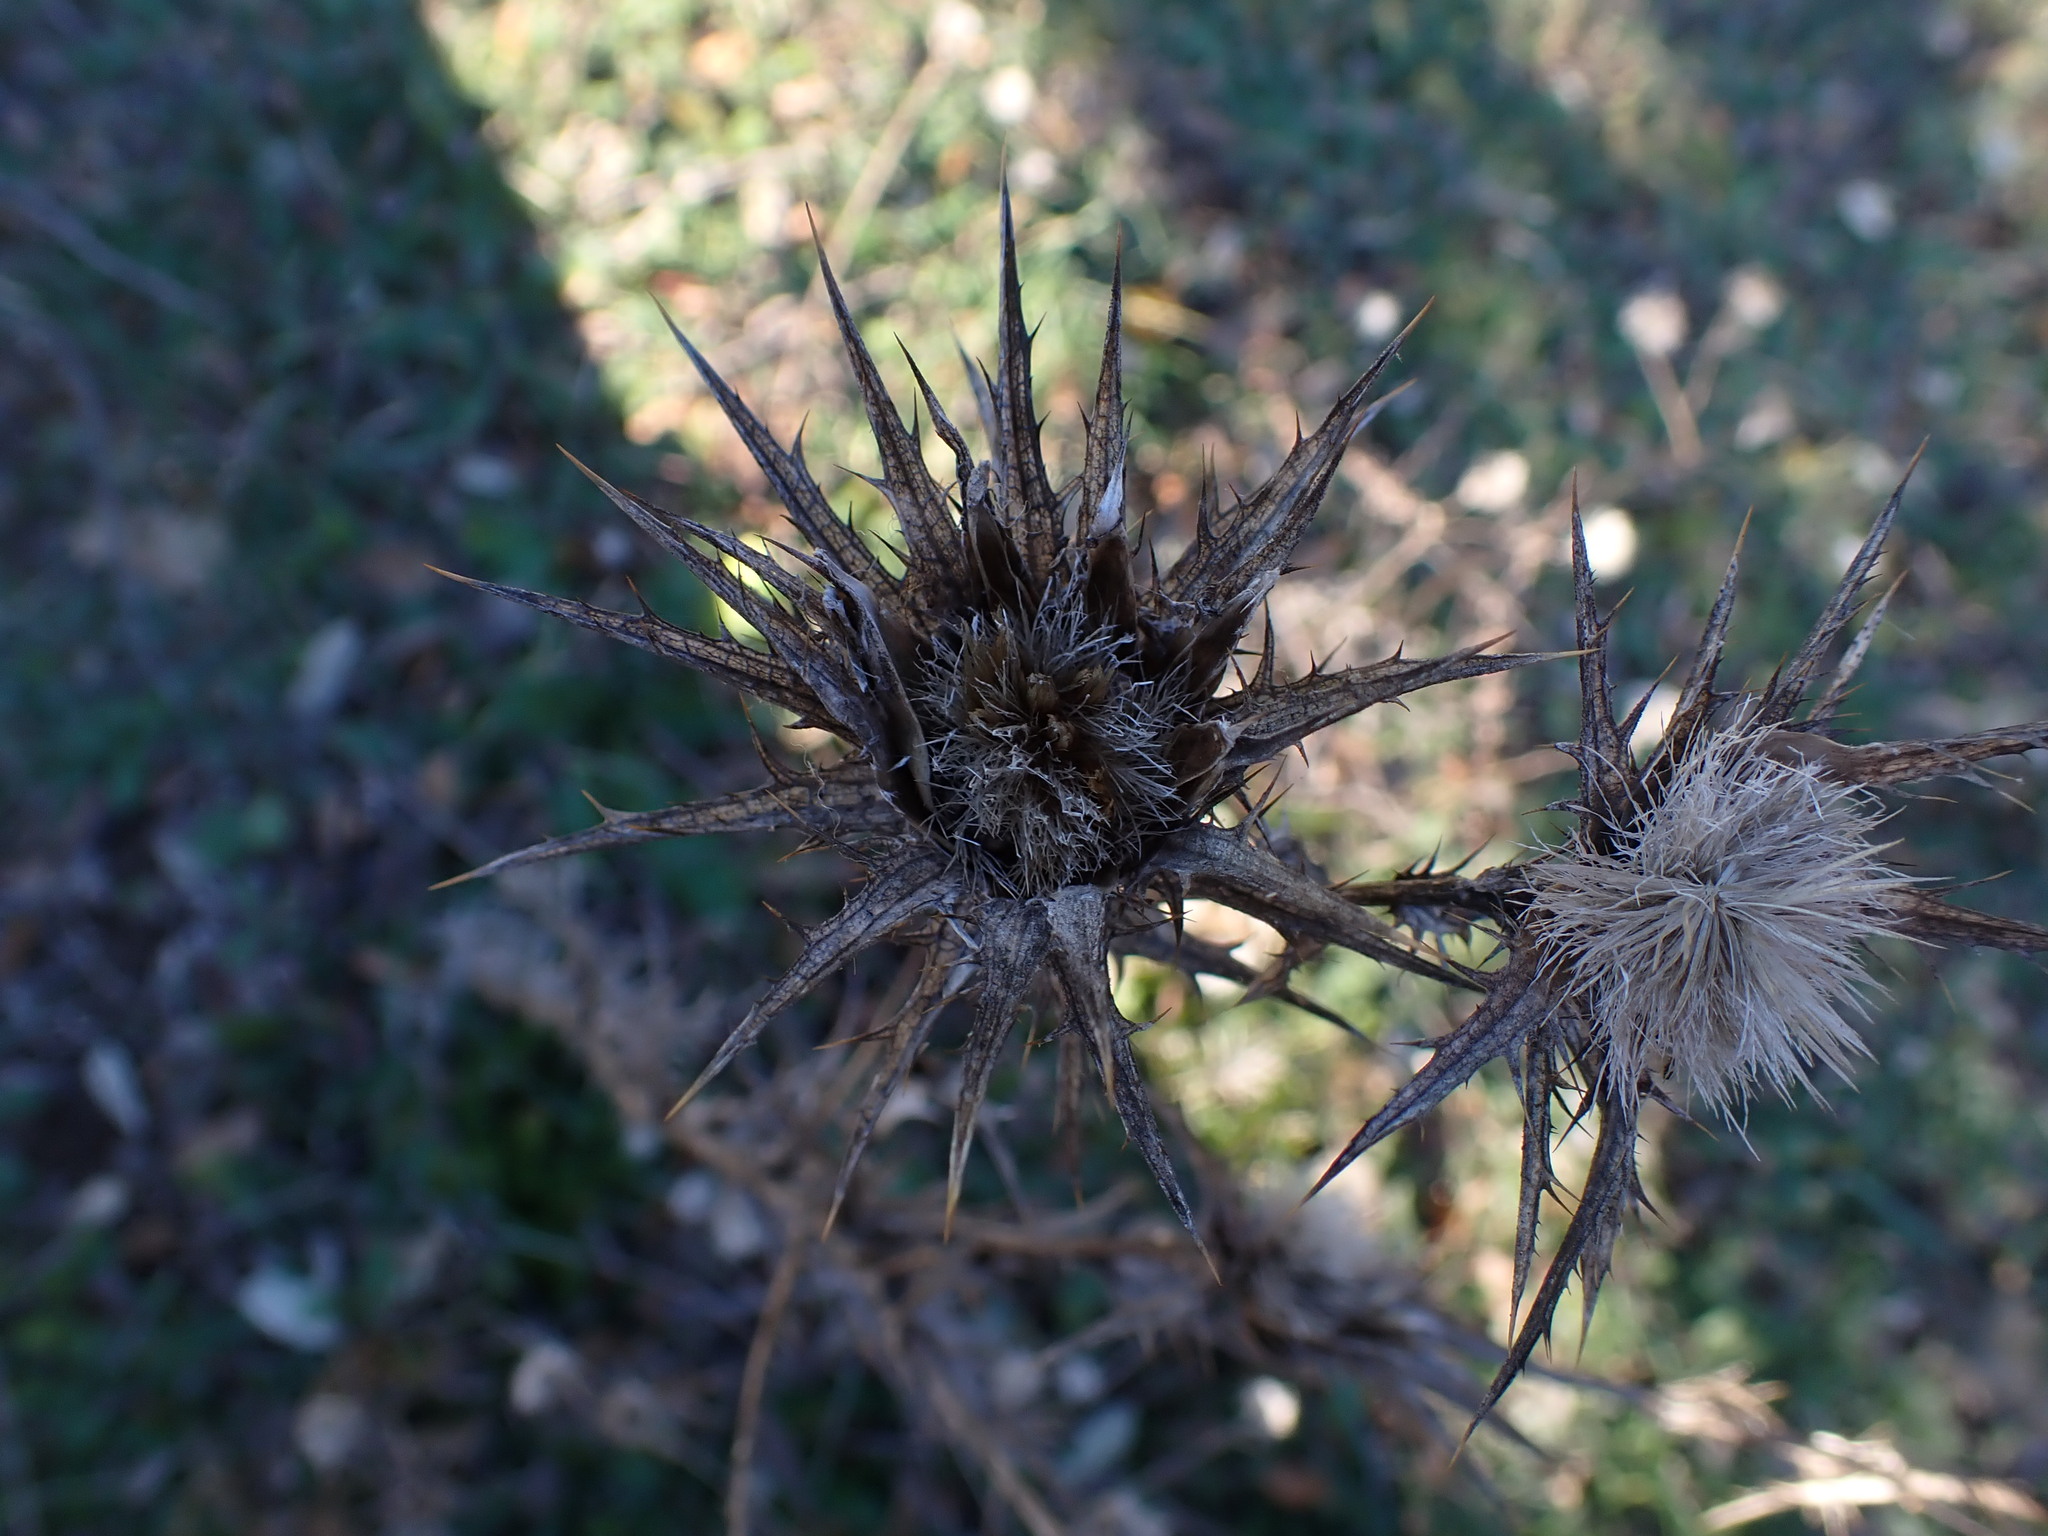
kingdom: Plantae
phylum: Tracheophyta
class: Magnoliopsida
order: Asterales
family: Asteraceae
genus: Carthamus
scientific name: Carthamus lanatus
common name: Downy safflower
